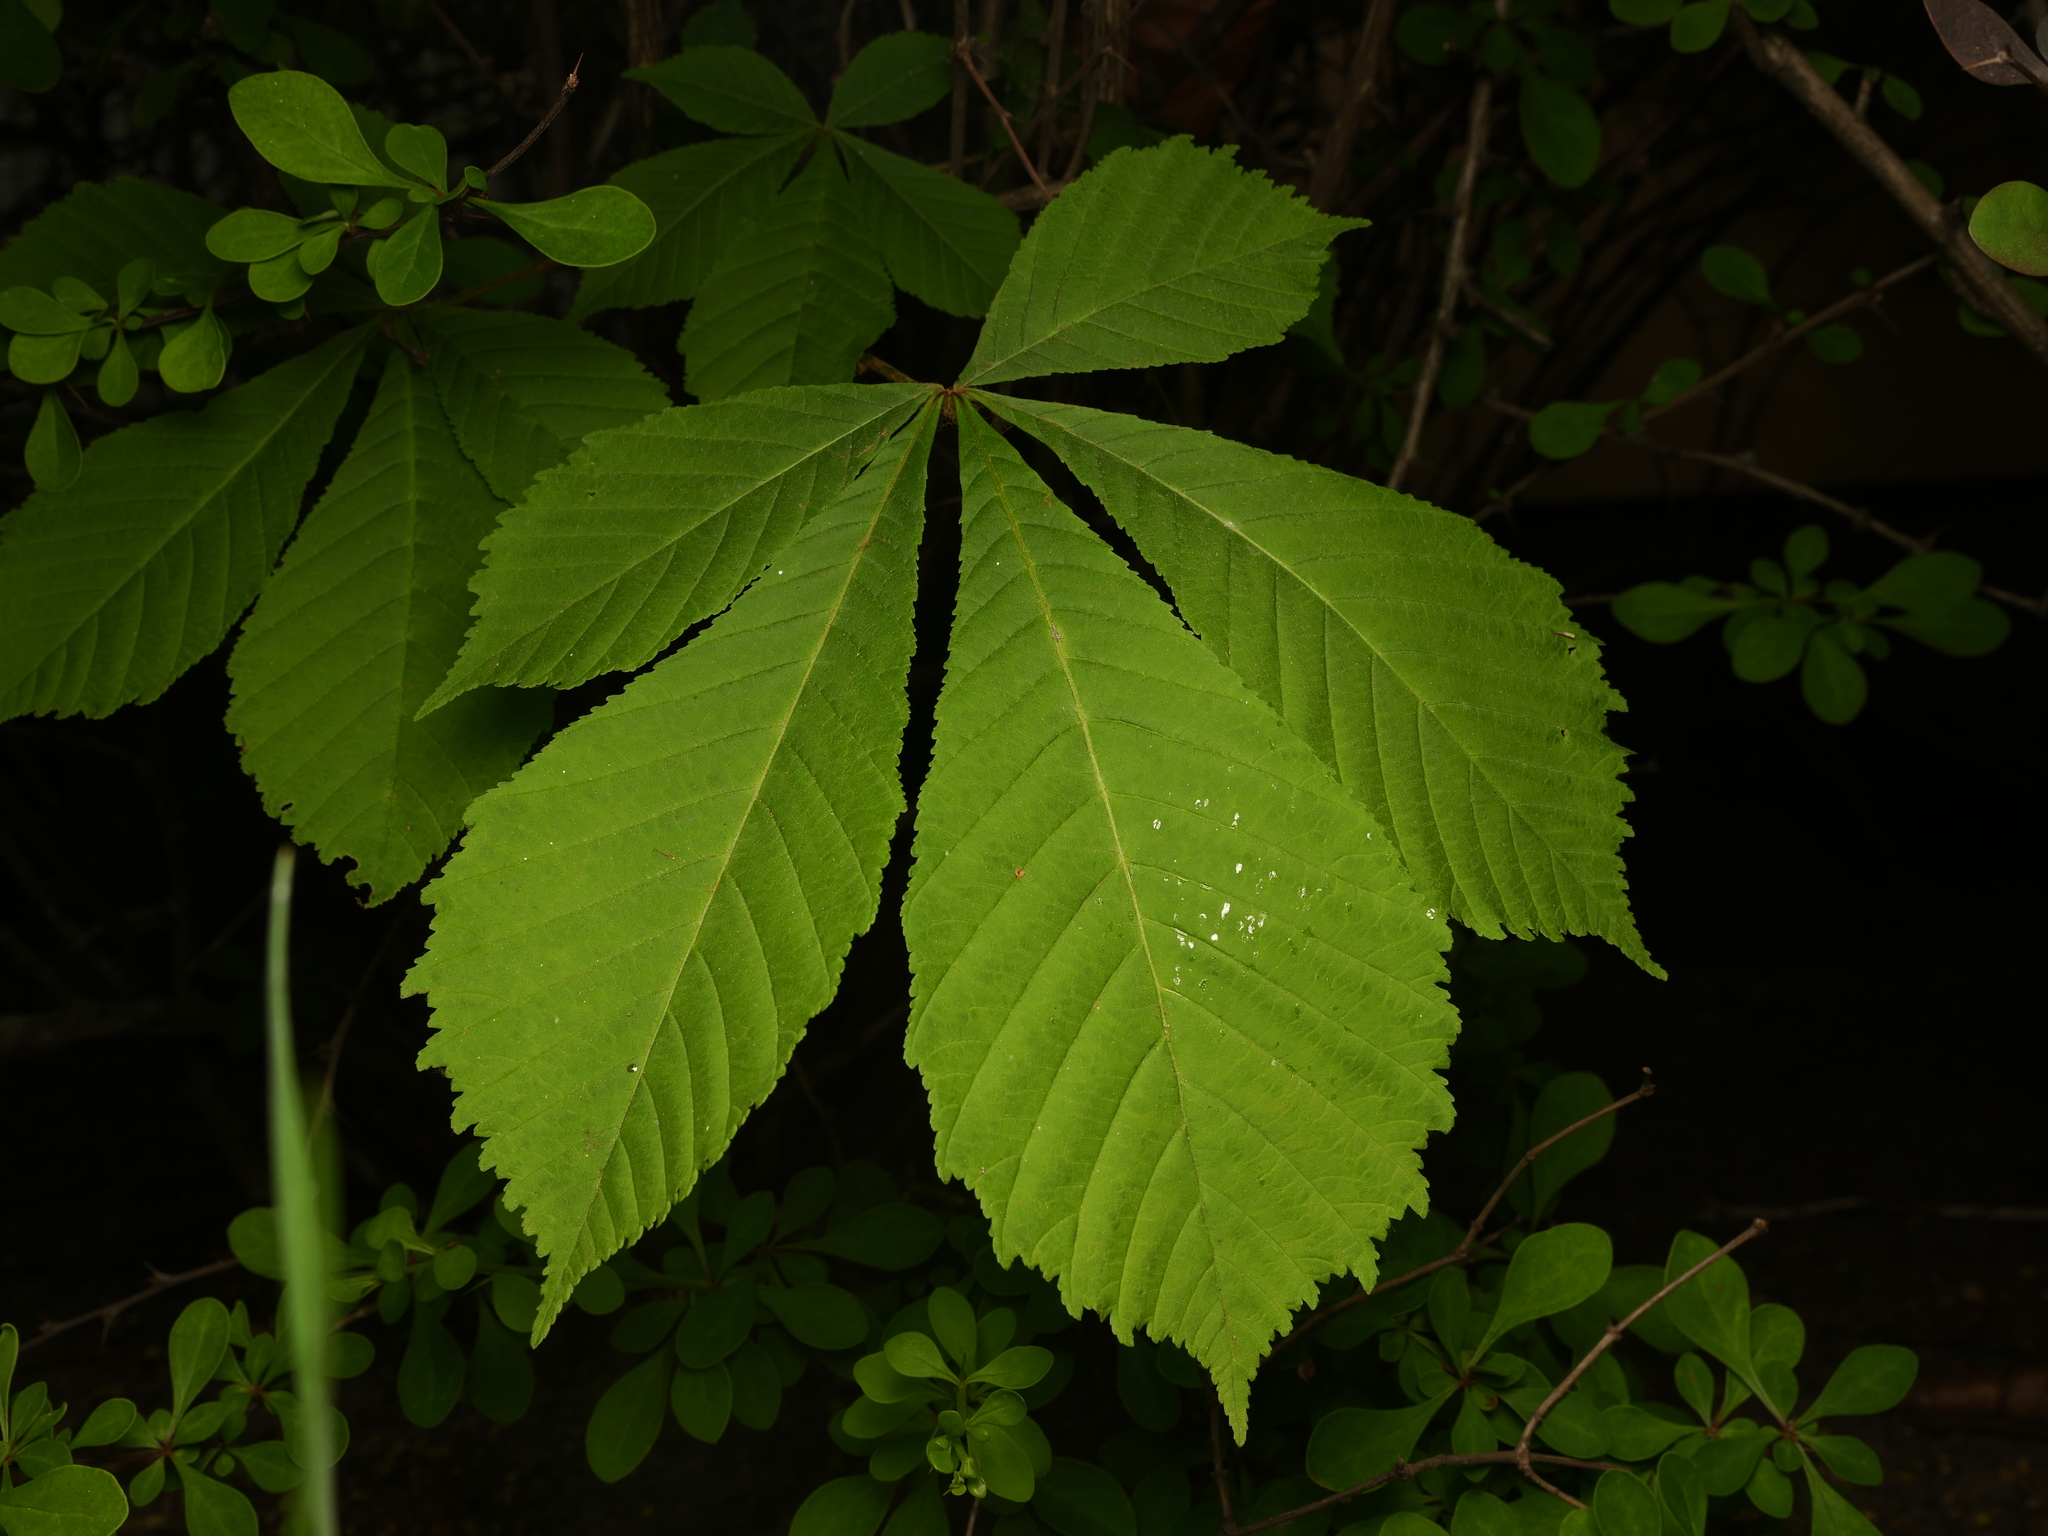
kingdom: Plantae
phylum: Tracheophyta
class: Magnoliopsida
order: Sapindales
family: Sapindaceae
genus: Aesculus
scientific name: Aesculus hippocastanum
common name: Horse-chestnut
